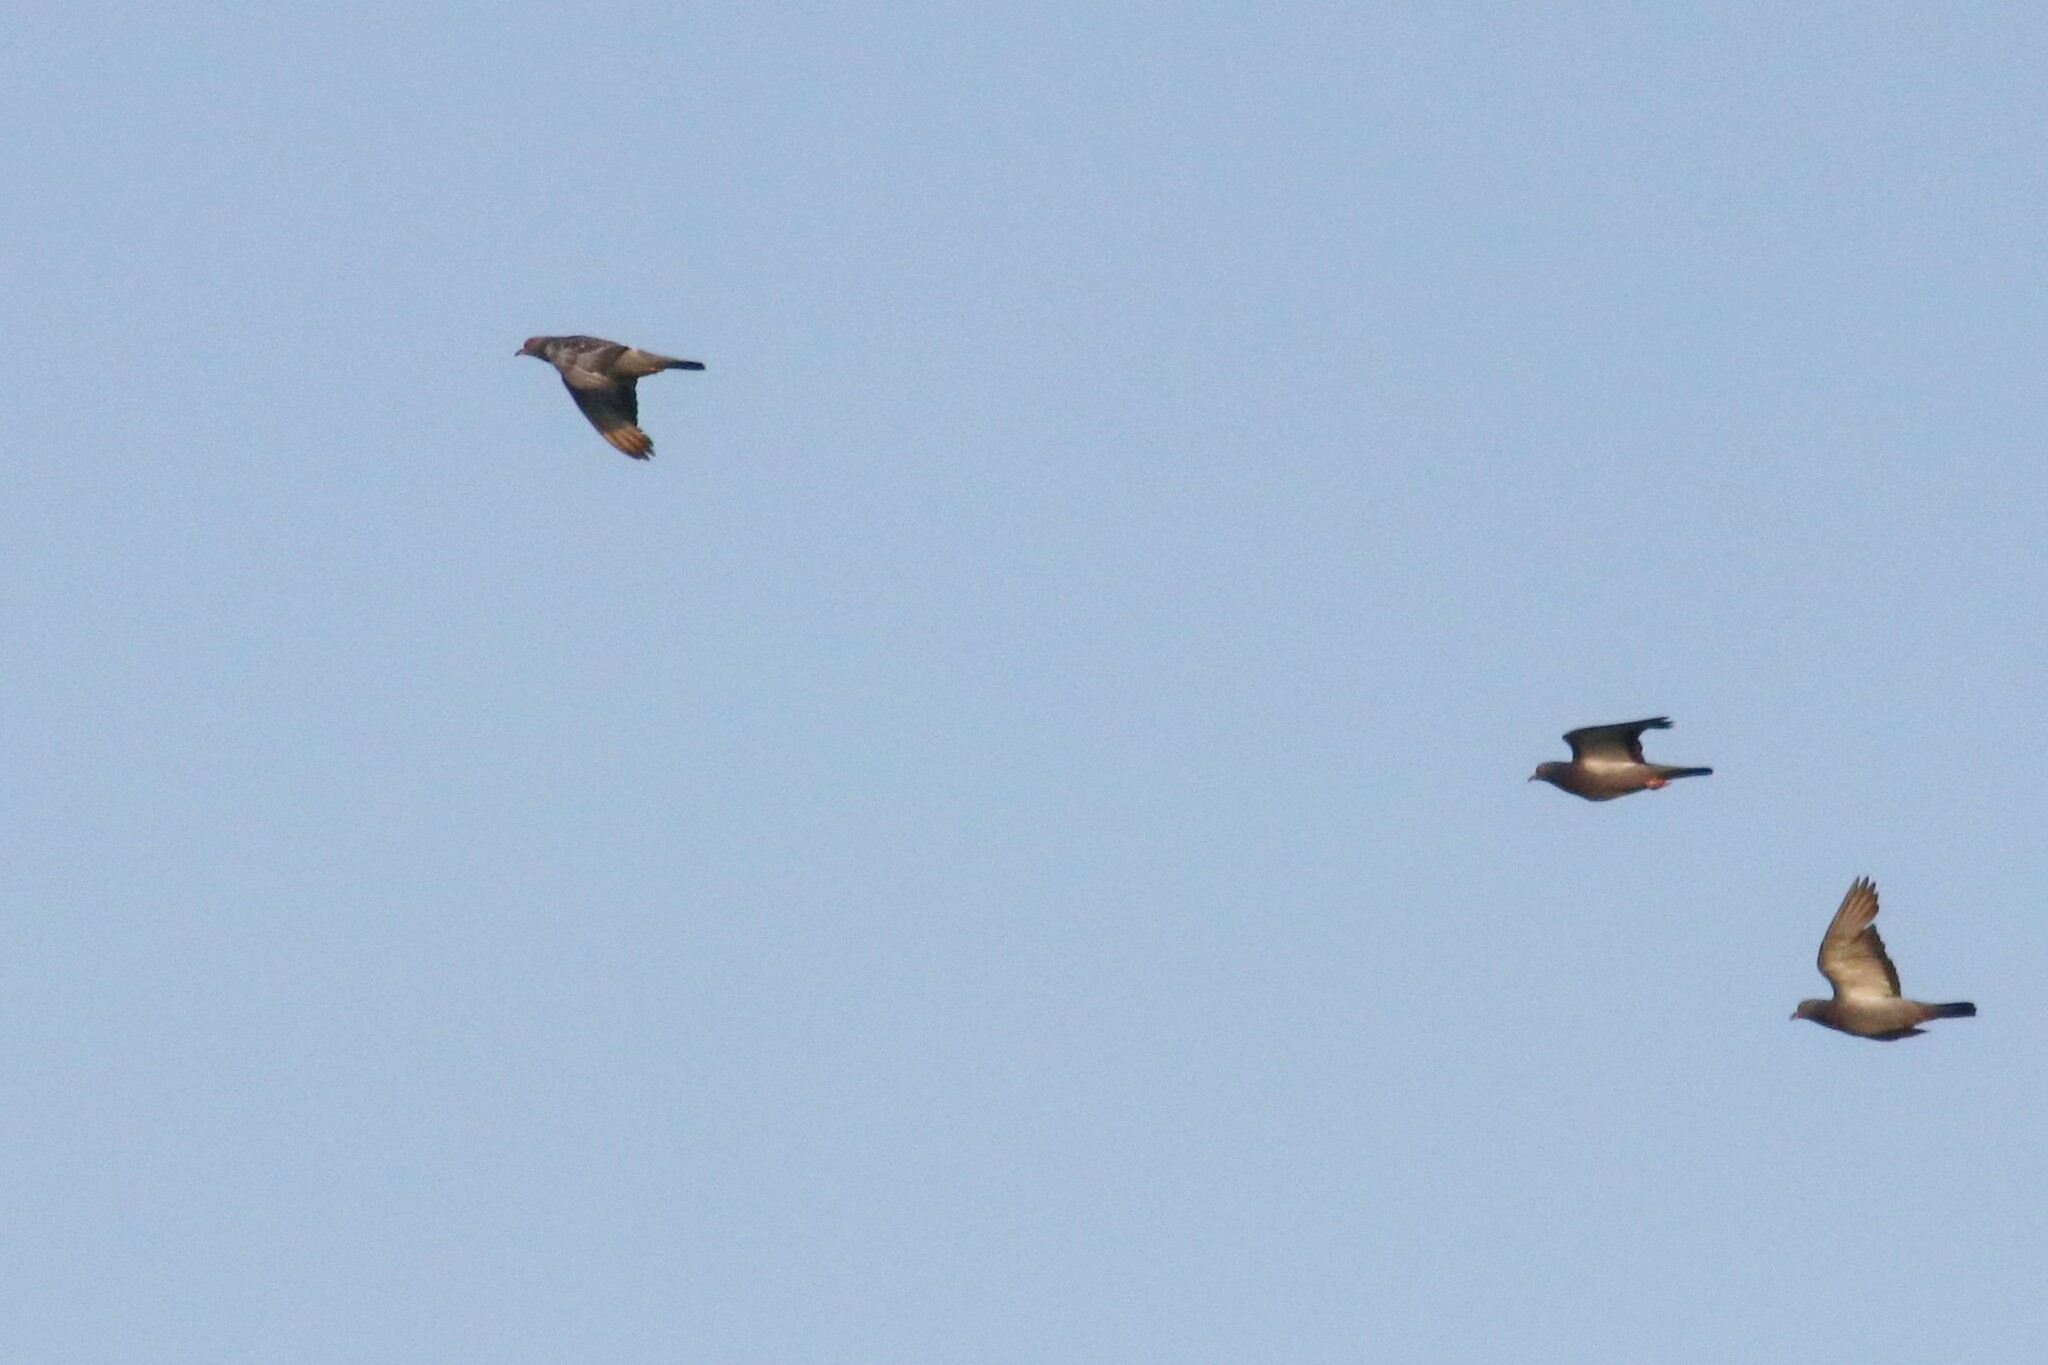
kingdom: Animalia
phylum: Chordata
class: Aves
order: Columbiformes
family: Columbidae
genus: Columba
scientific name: Columba livia
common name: Rock pigeon
